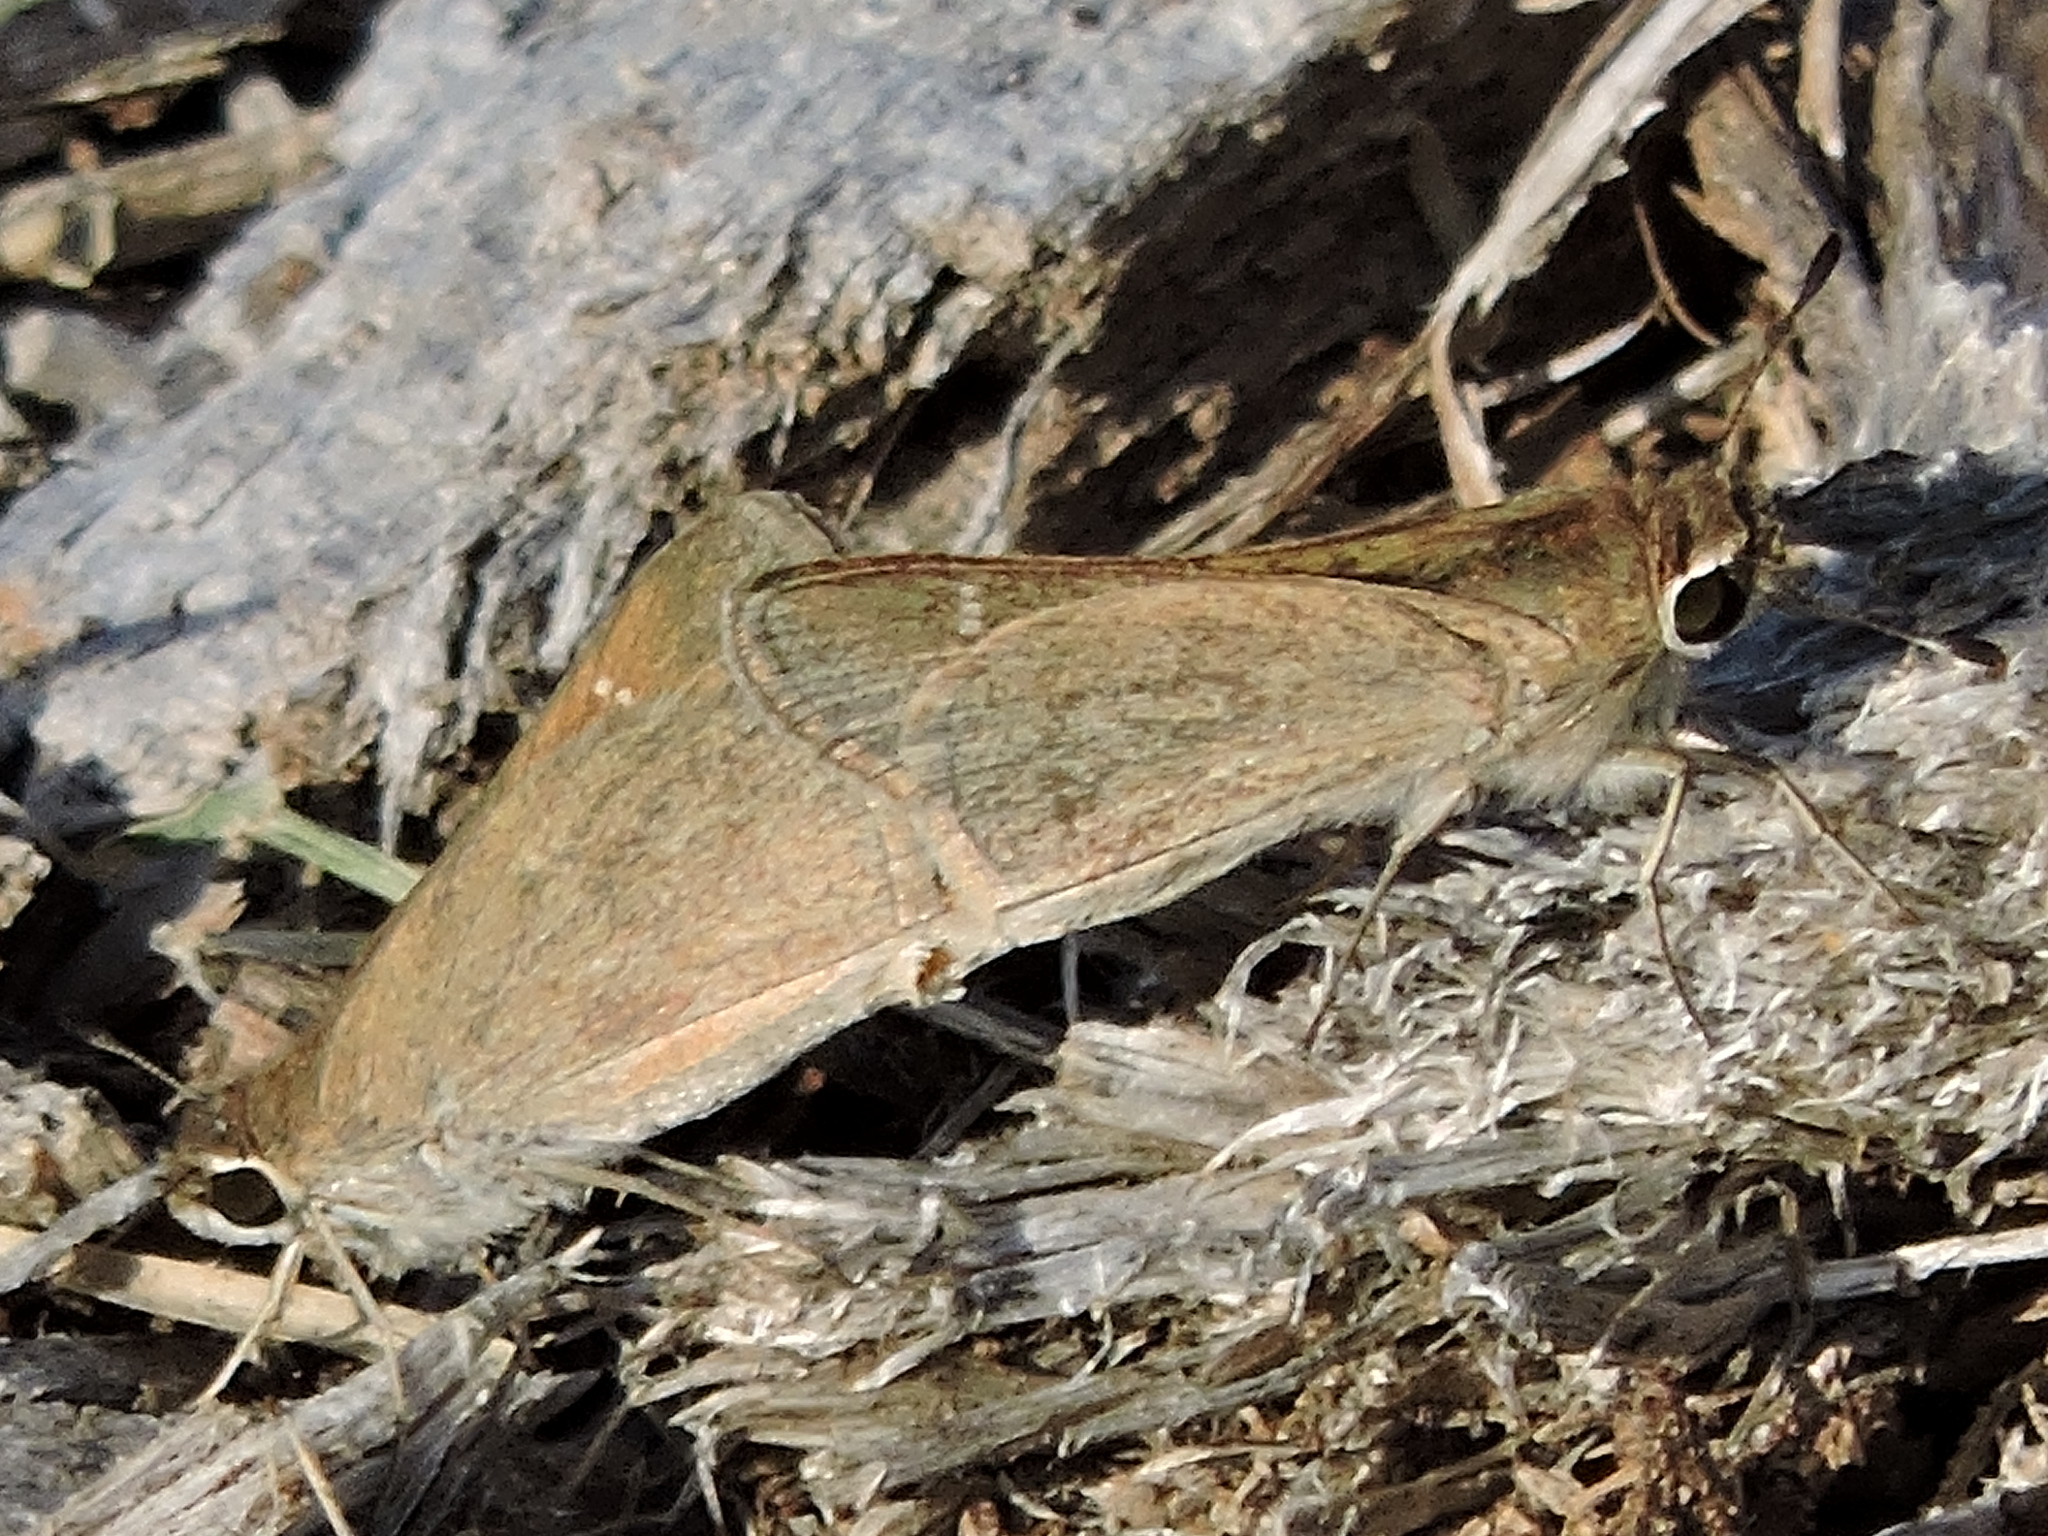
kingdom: Animalia
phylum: Arthropoda
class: Insecta
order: Lepidoptera
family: Hesperiidae
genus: Lerodea
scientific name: Lerodea eufala
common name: Eufala skipper
